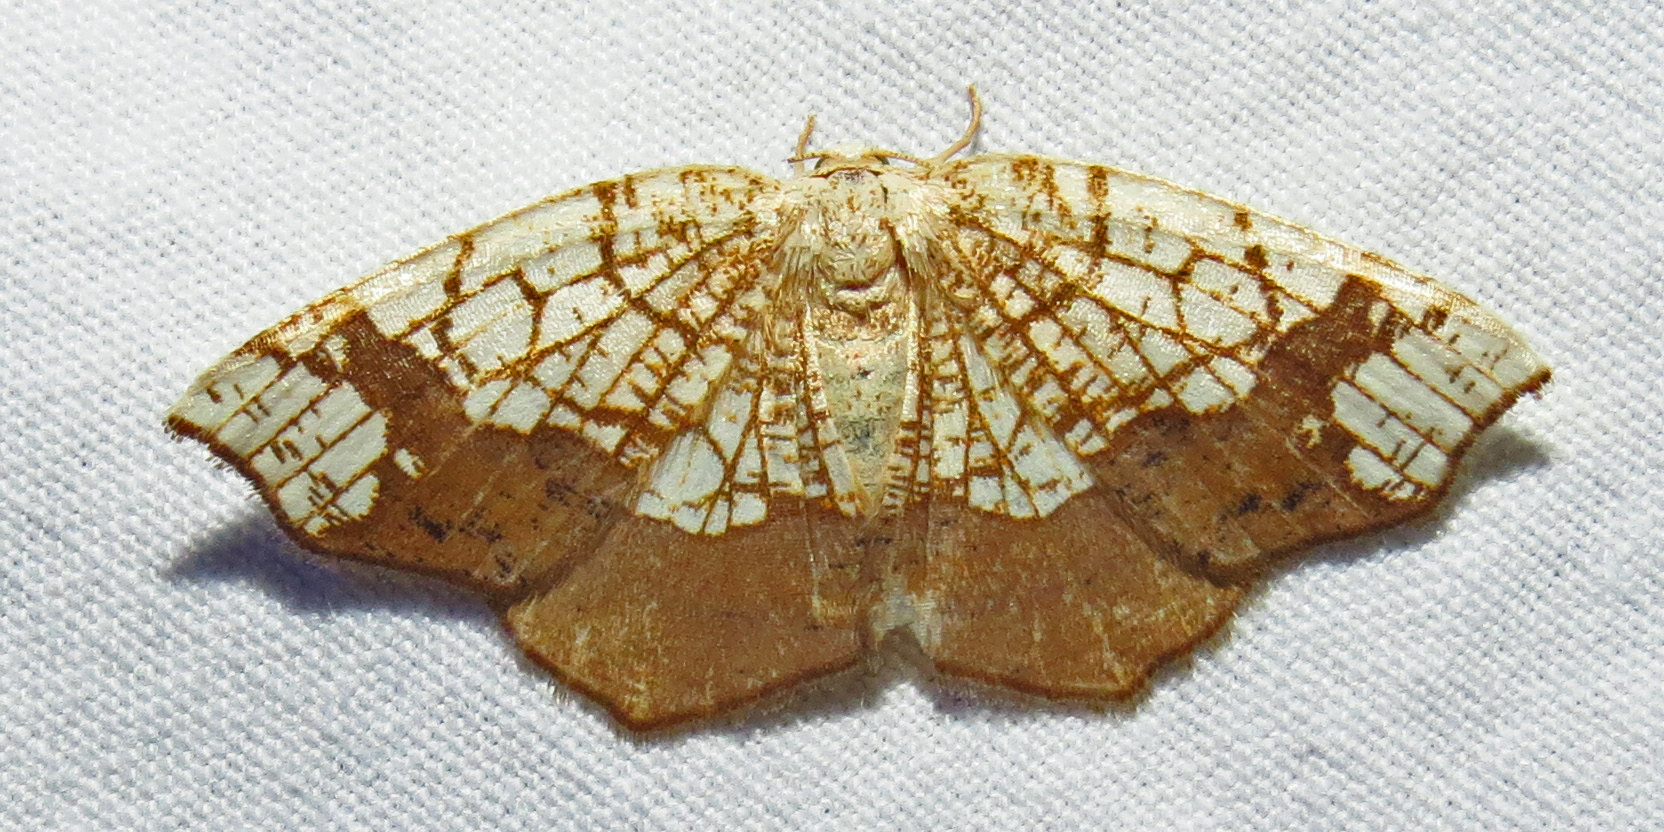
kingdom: Animalia
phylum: Arthropoda
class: Insecta
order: Lepidoptera
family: Geometridae
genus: Nematocampa
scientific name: Nematocampa resistaria
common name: Horned spanworm moth
